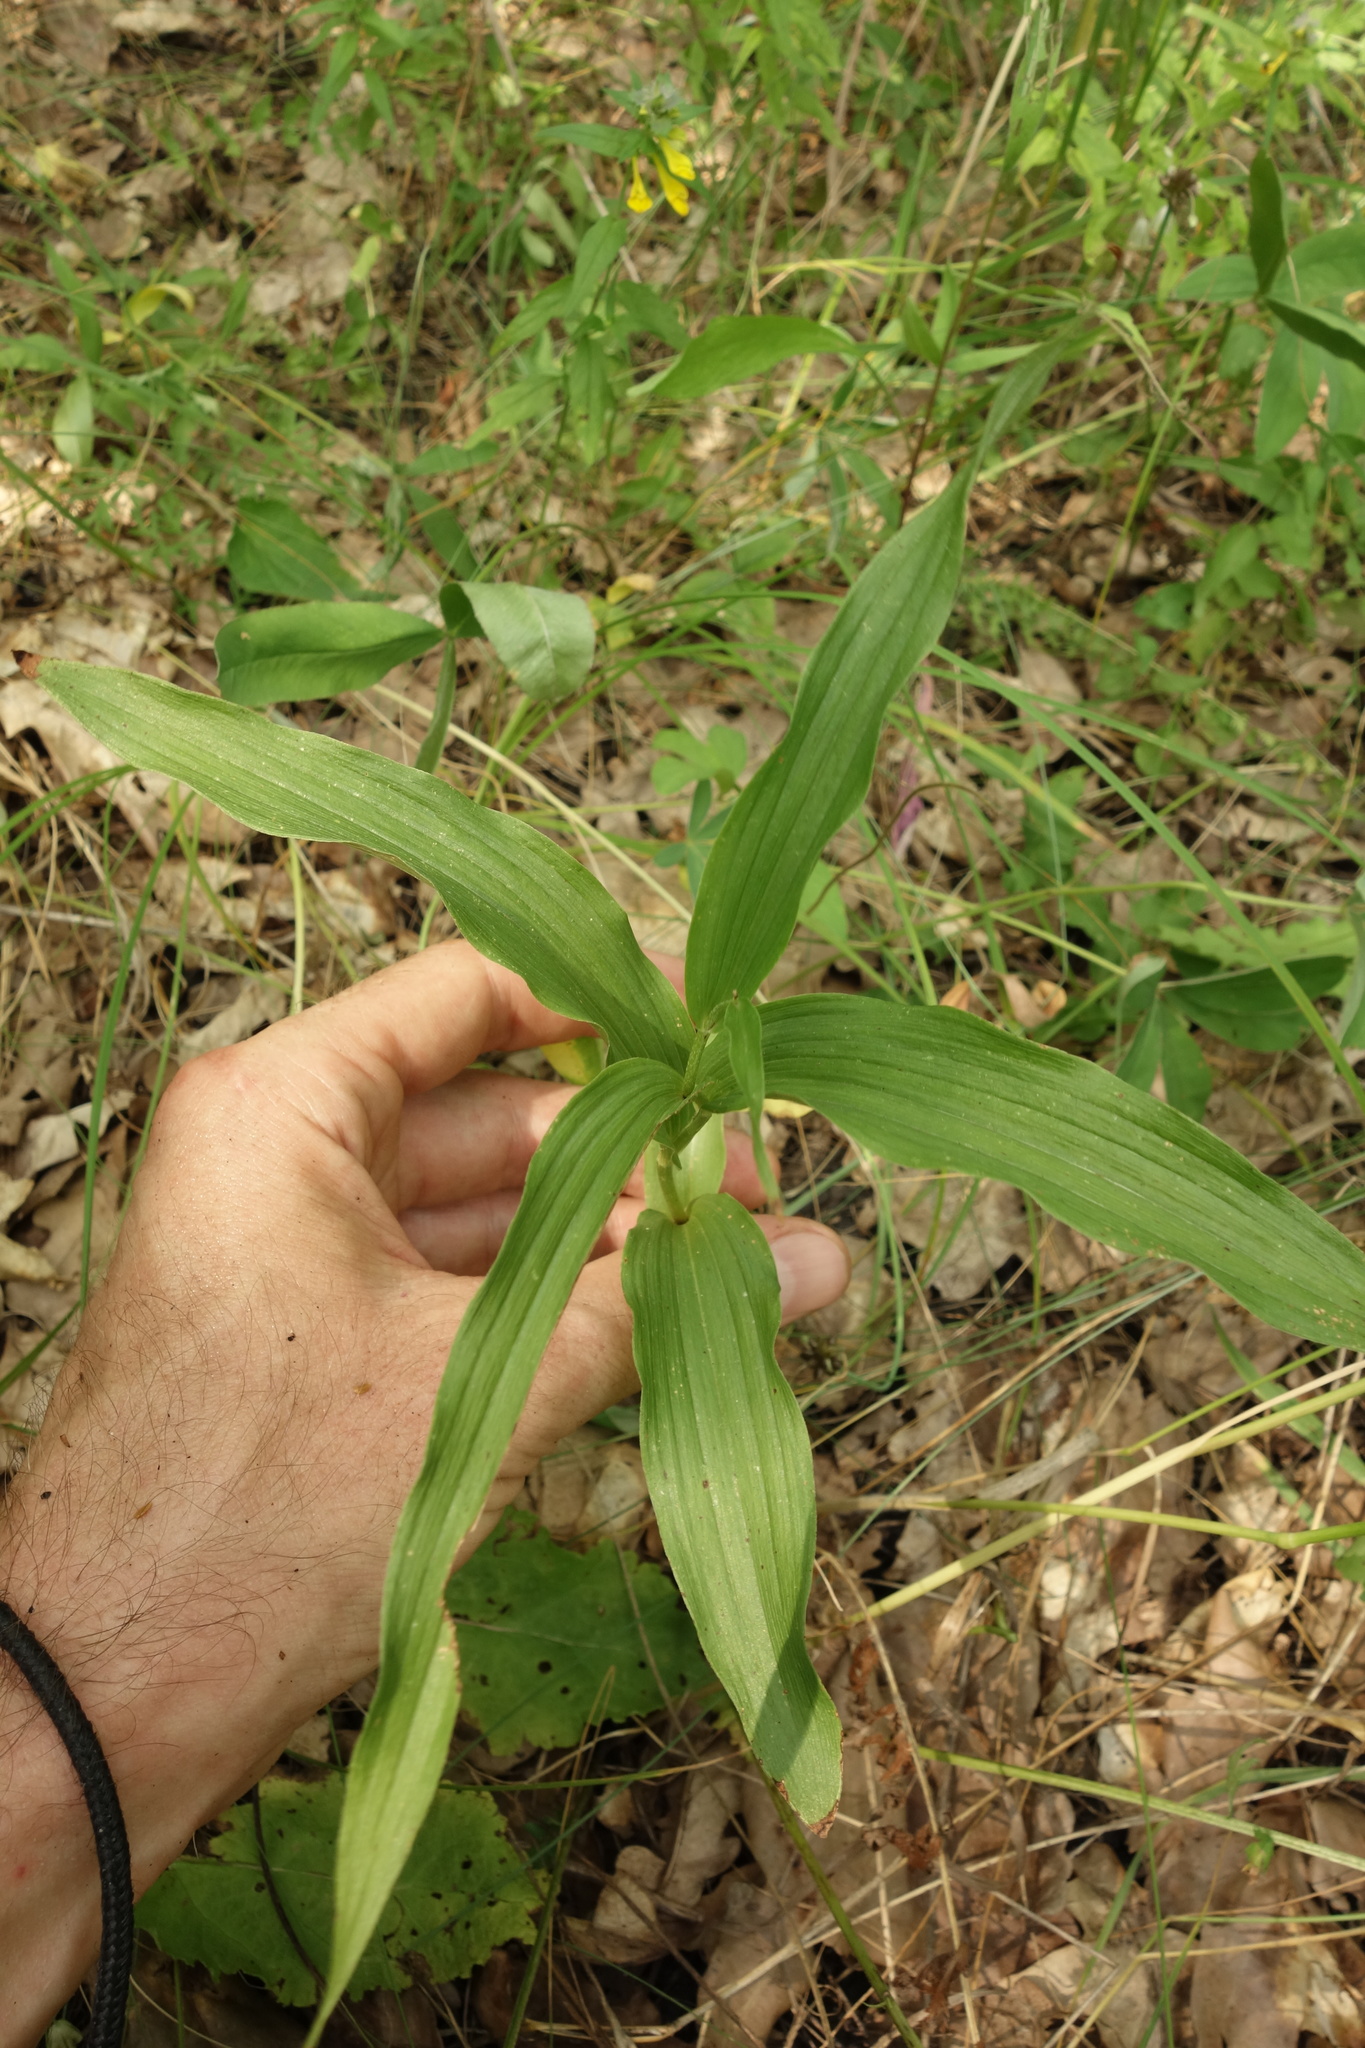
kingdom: Plantae
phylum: Tracheophyta
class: Liliopsida
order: Asparagales
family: Orchidaceae
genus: Epipactis
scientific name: Epipactis helleborine
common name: Broad-leaved helleborine
